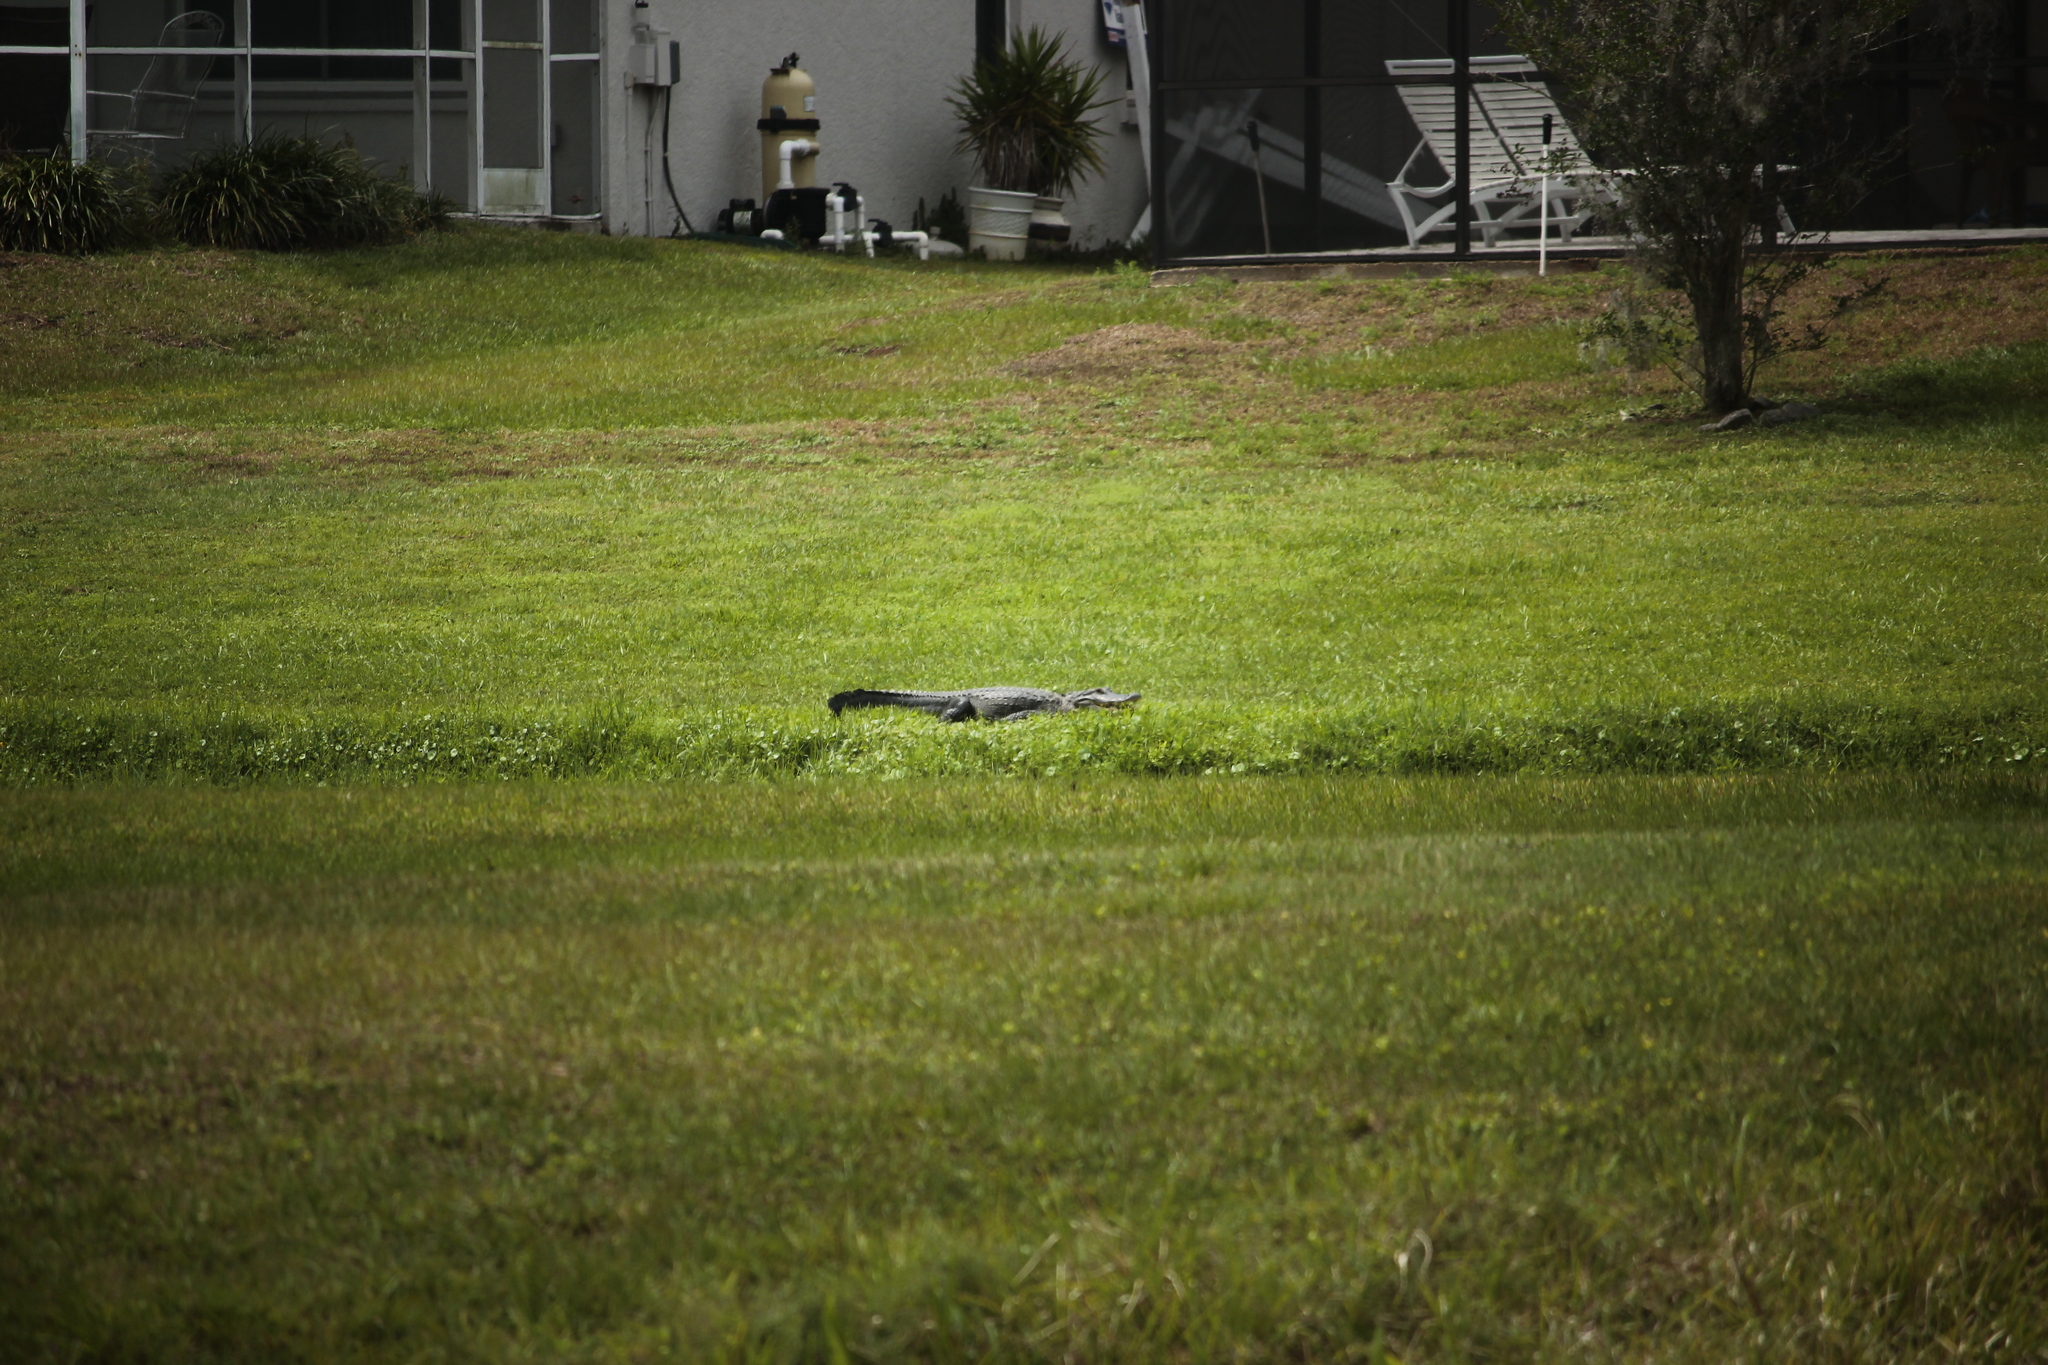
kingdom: Animalia
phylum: Chordata
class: Crocodylia
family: Alligatoridae
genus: Alligator
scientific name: Alligator mississippiensis
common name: American alligator
